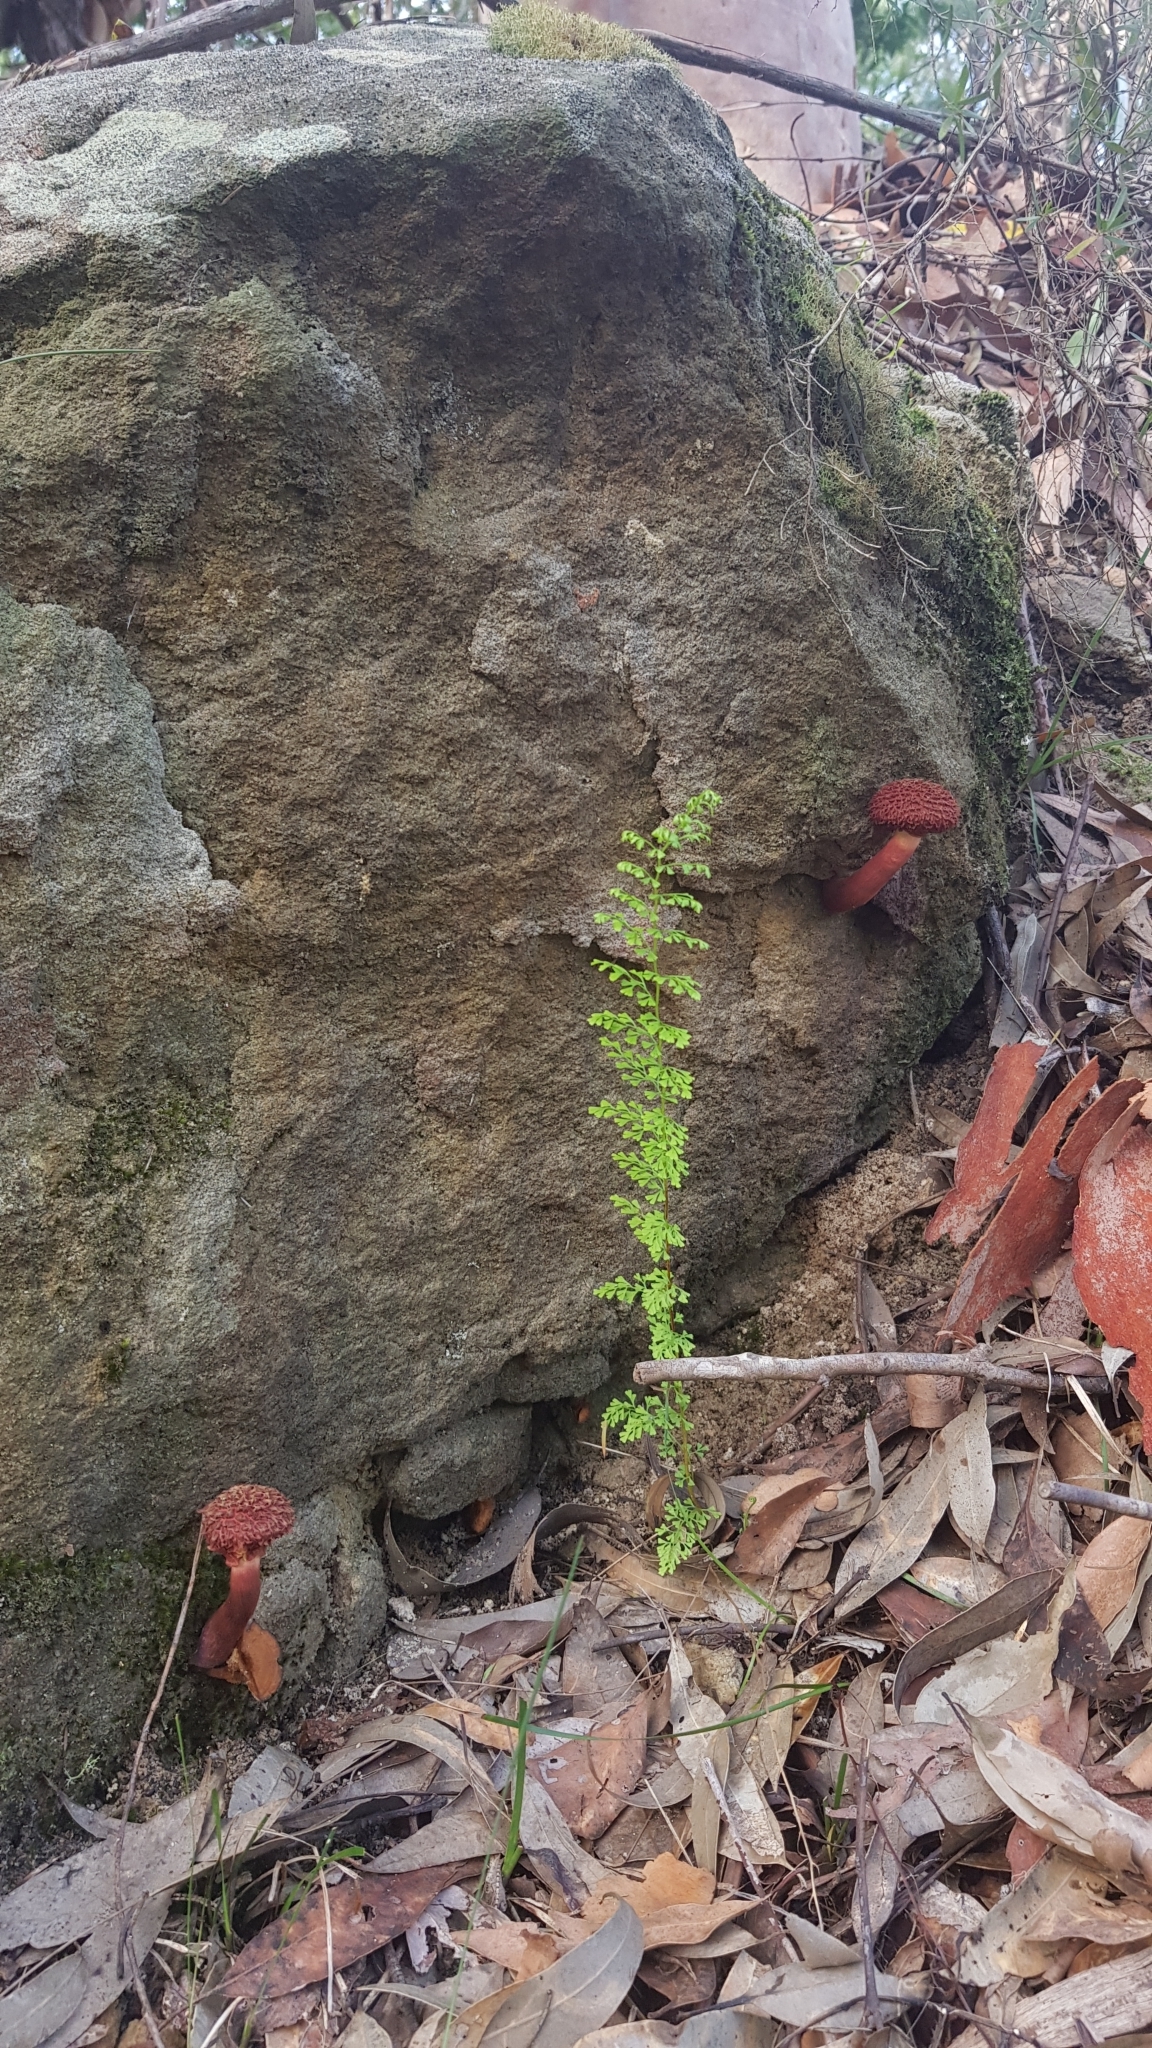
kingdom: Fungi
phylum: Basidiomycota
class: Agaricomycetes
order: Boletales
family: Boletaceae
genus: Boletellus
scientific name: Boletellus emodensis
